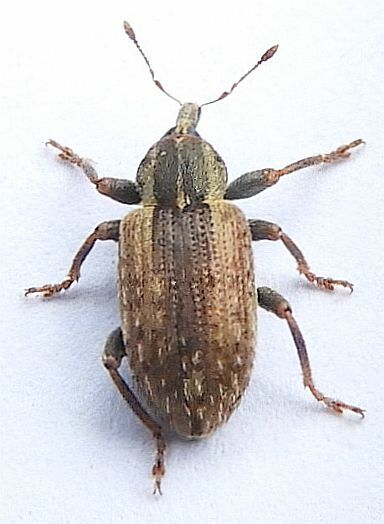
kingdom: Animalia
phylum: Arthropoda
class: Insecta
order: Coleoptera
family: Curculionidae
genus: Hypera
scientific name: Hypera postica
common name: Weevil
